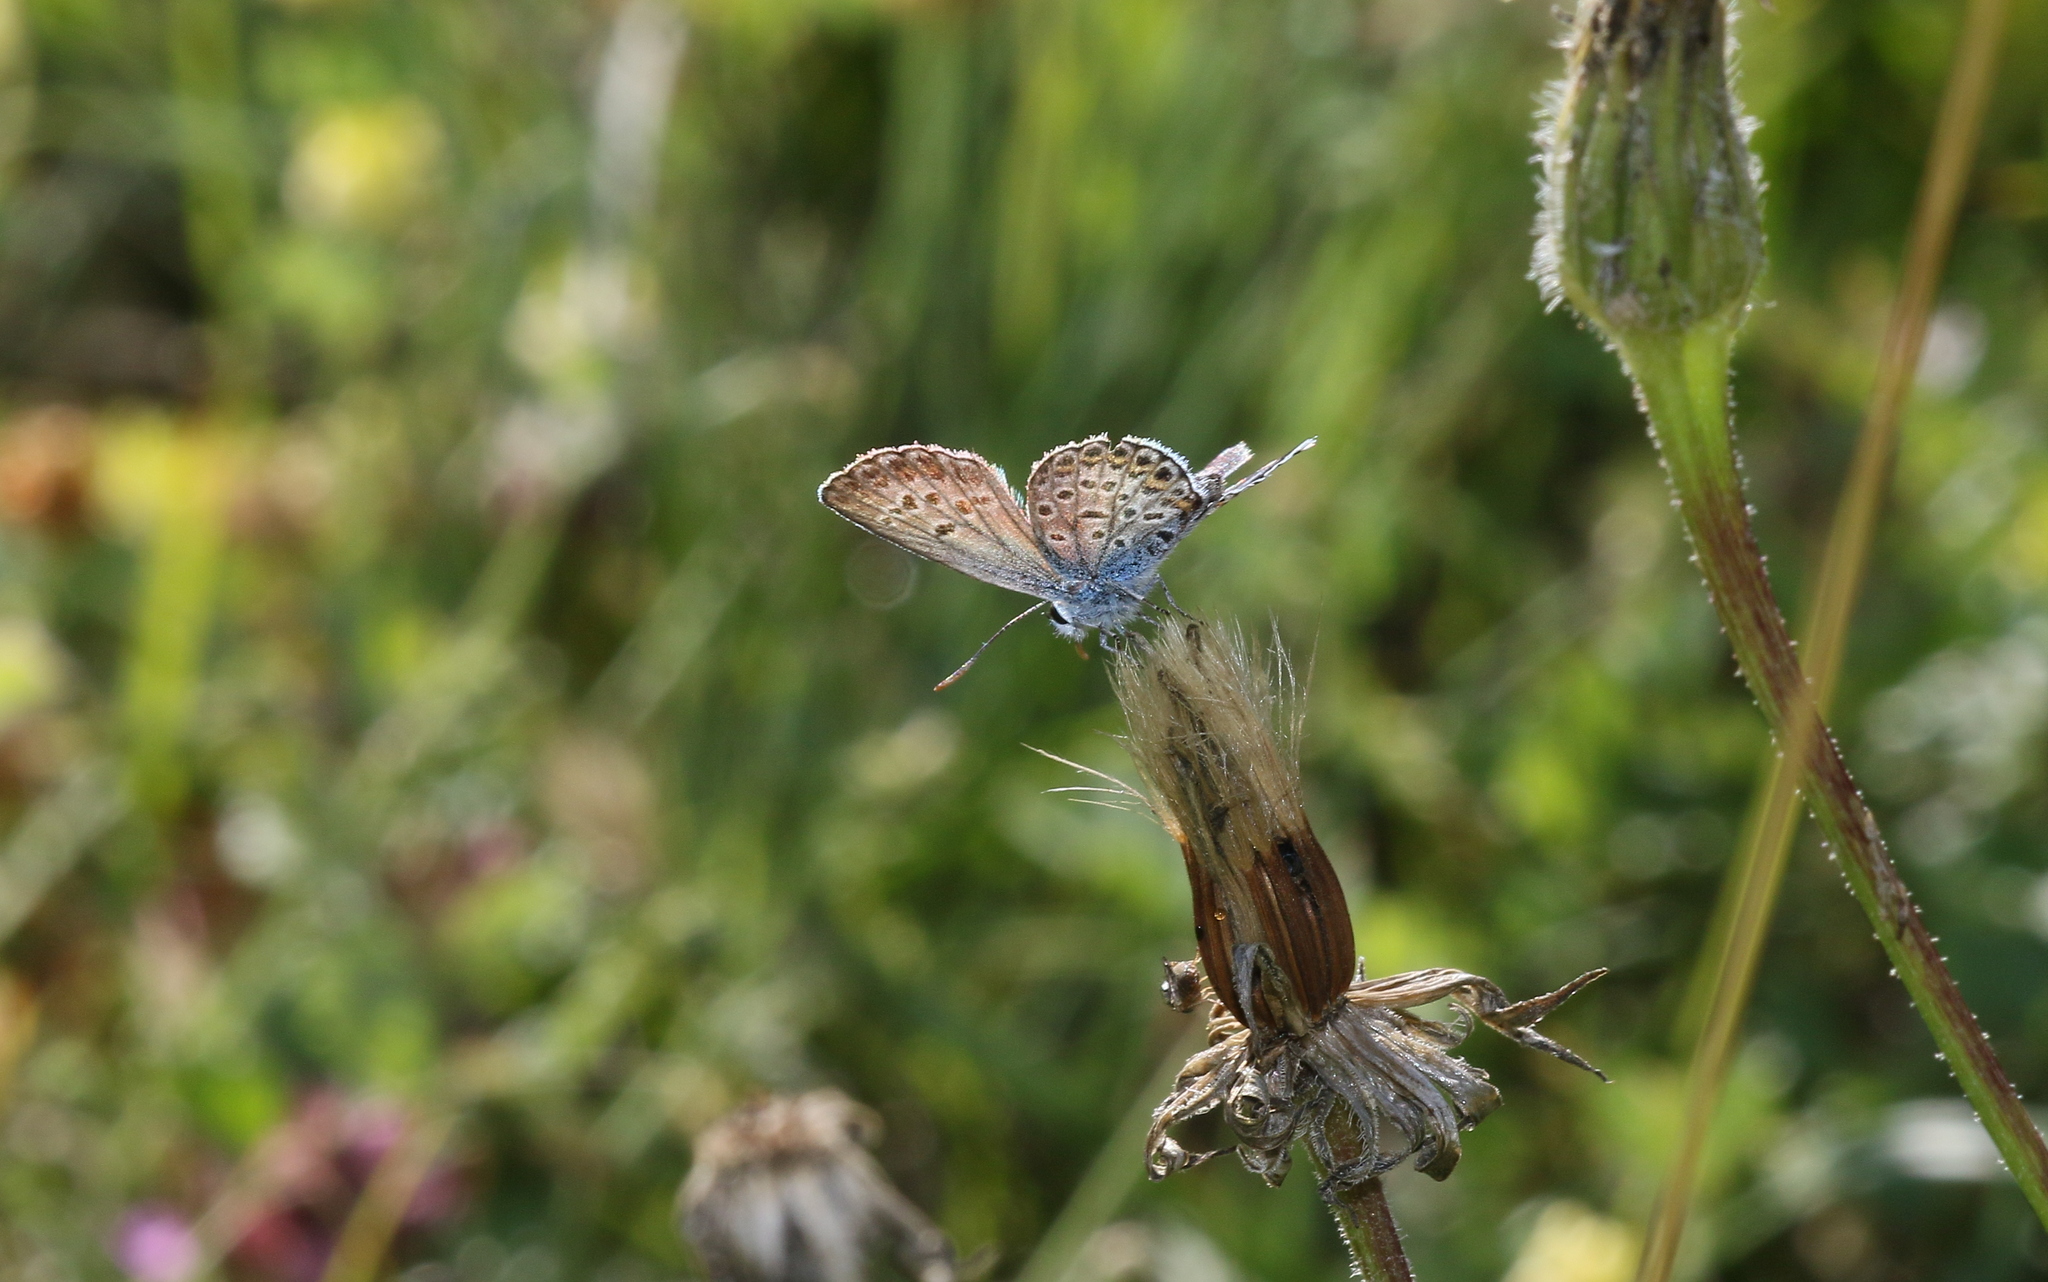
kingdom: Animalia
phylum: Arthropoda
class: Insecta
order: Lepidoptera
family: Lycaenidae
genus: Plebejus
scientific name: Plebejus argus
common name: Silver-studded blue
